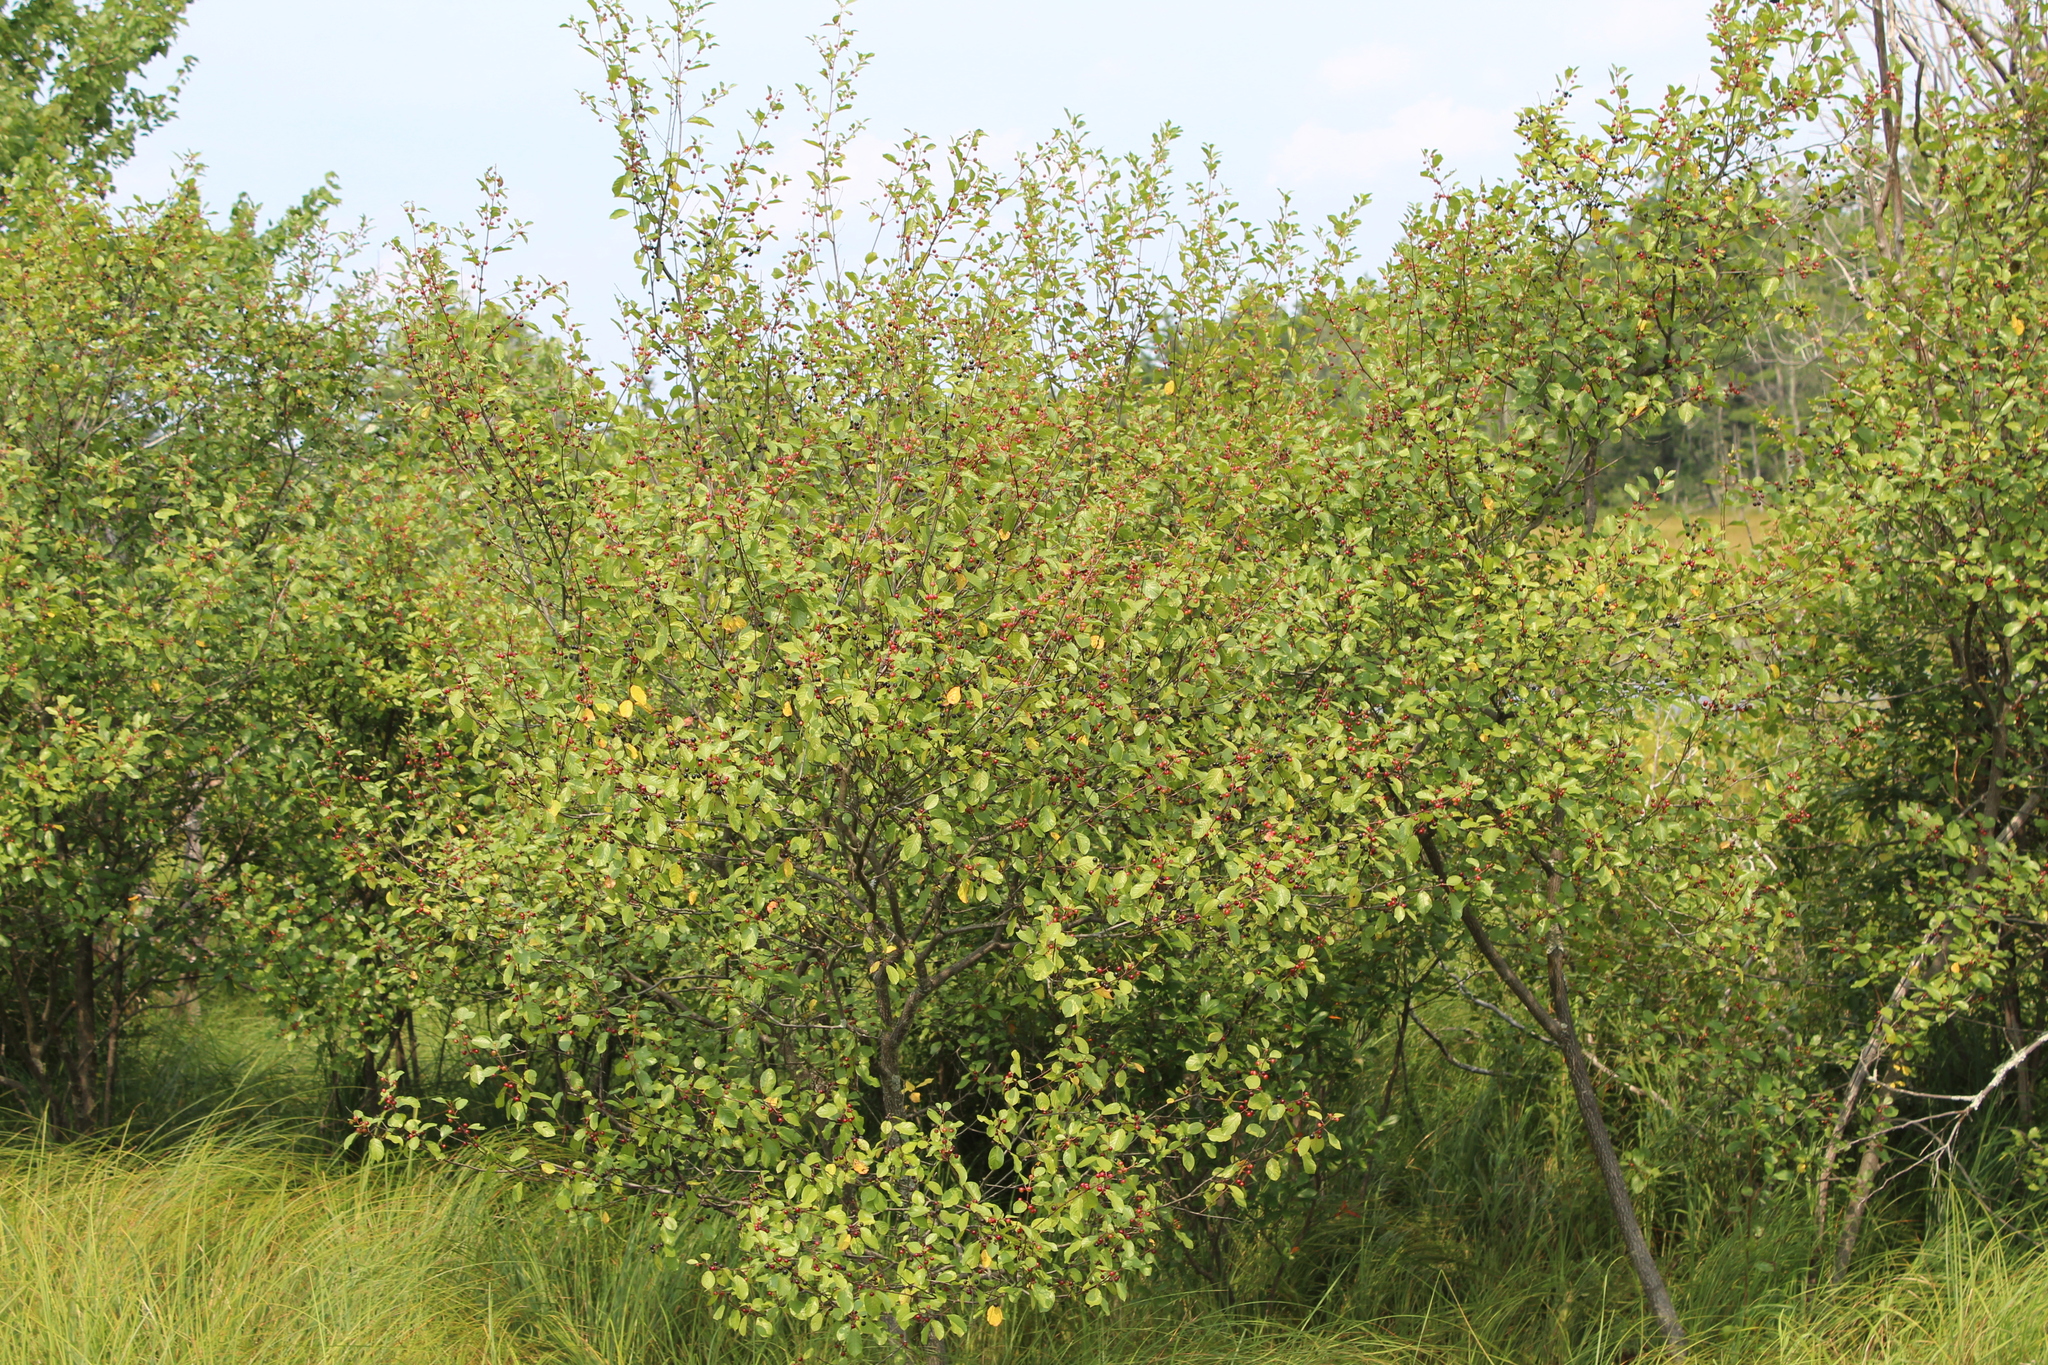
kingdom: Plantae
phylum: Tracheophyta
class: Magnoliopsida
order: Rosales
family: Rhamnaceae
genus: Frangula
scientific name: Frangula alnus
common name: Alder buckthorn
